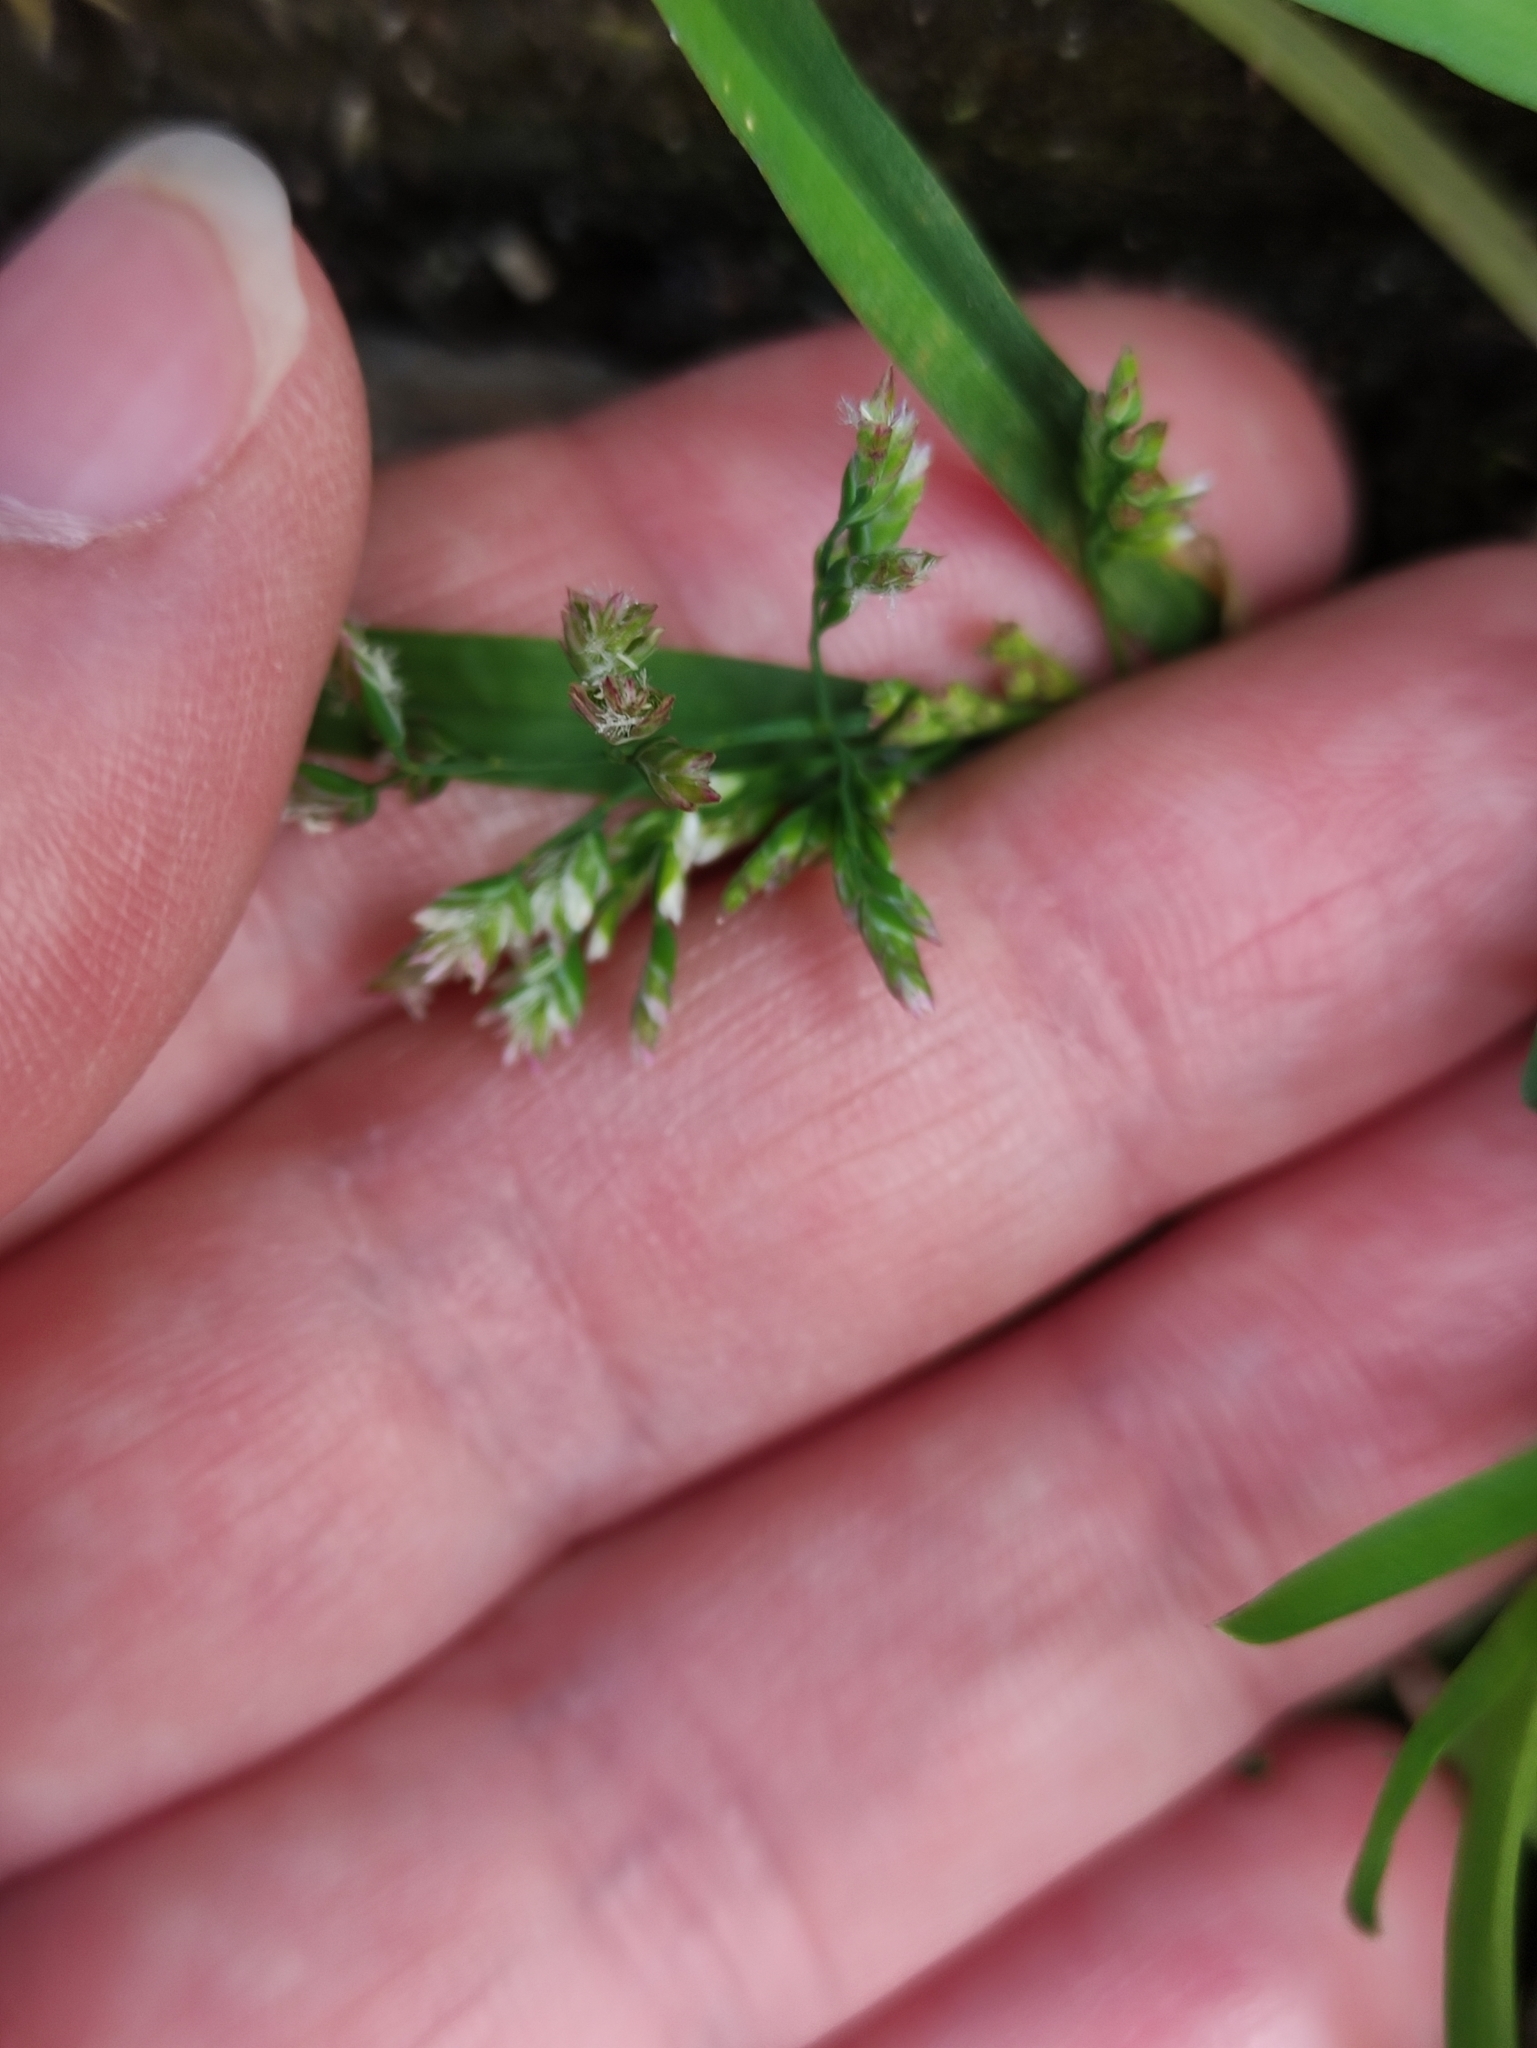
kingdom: Plantae
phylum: Tracheophyta
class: Liliopsida
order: Poales
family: Poaceae
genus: Poa
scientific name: Poa annua
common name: Annual bluegrass
